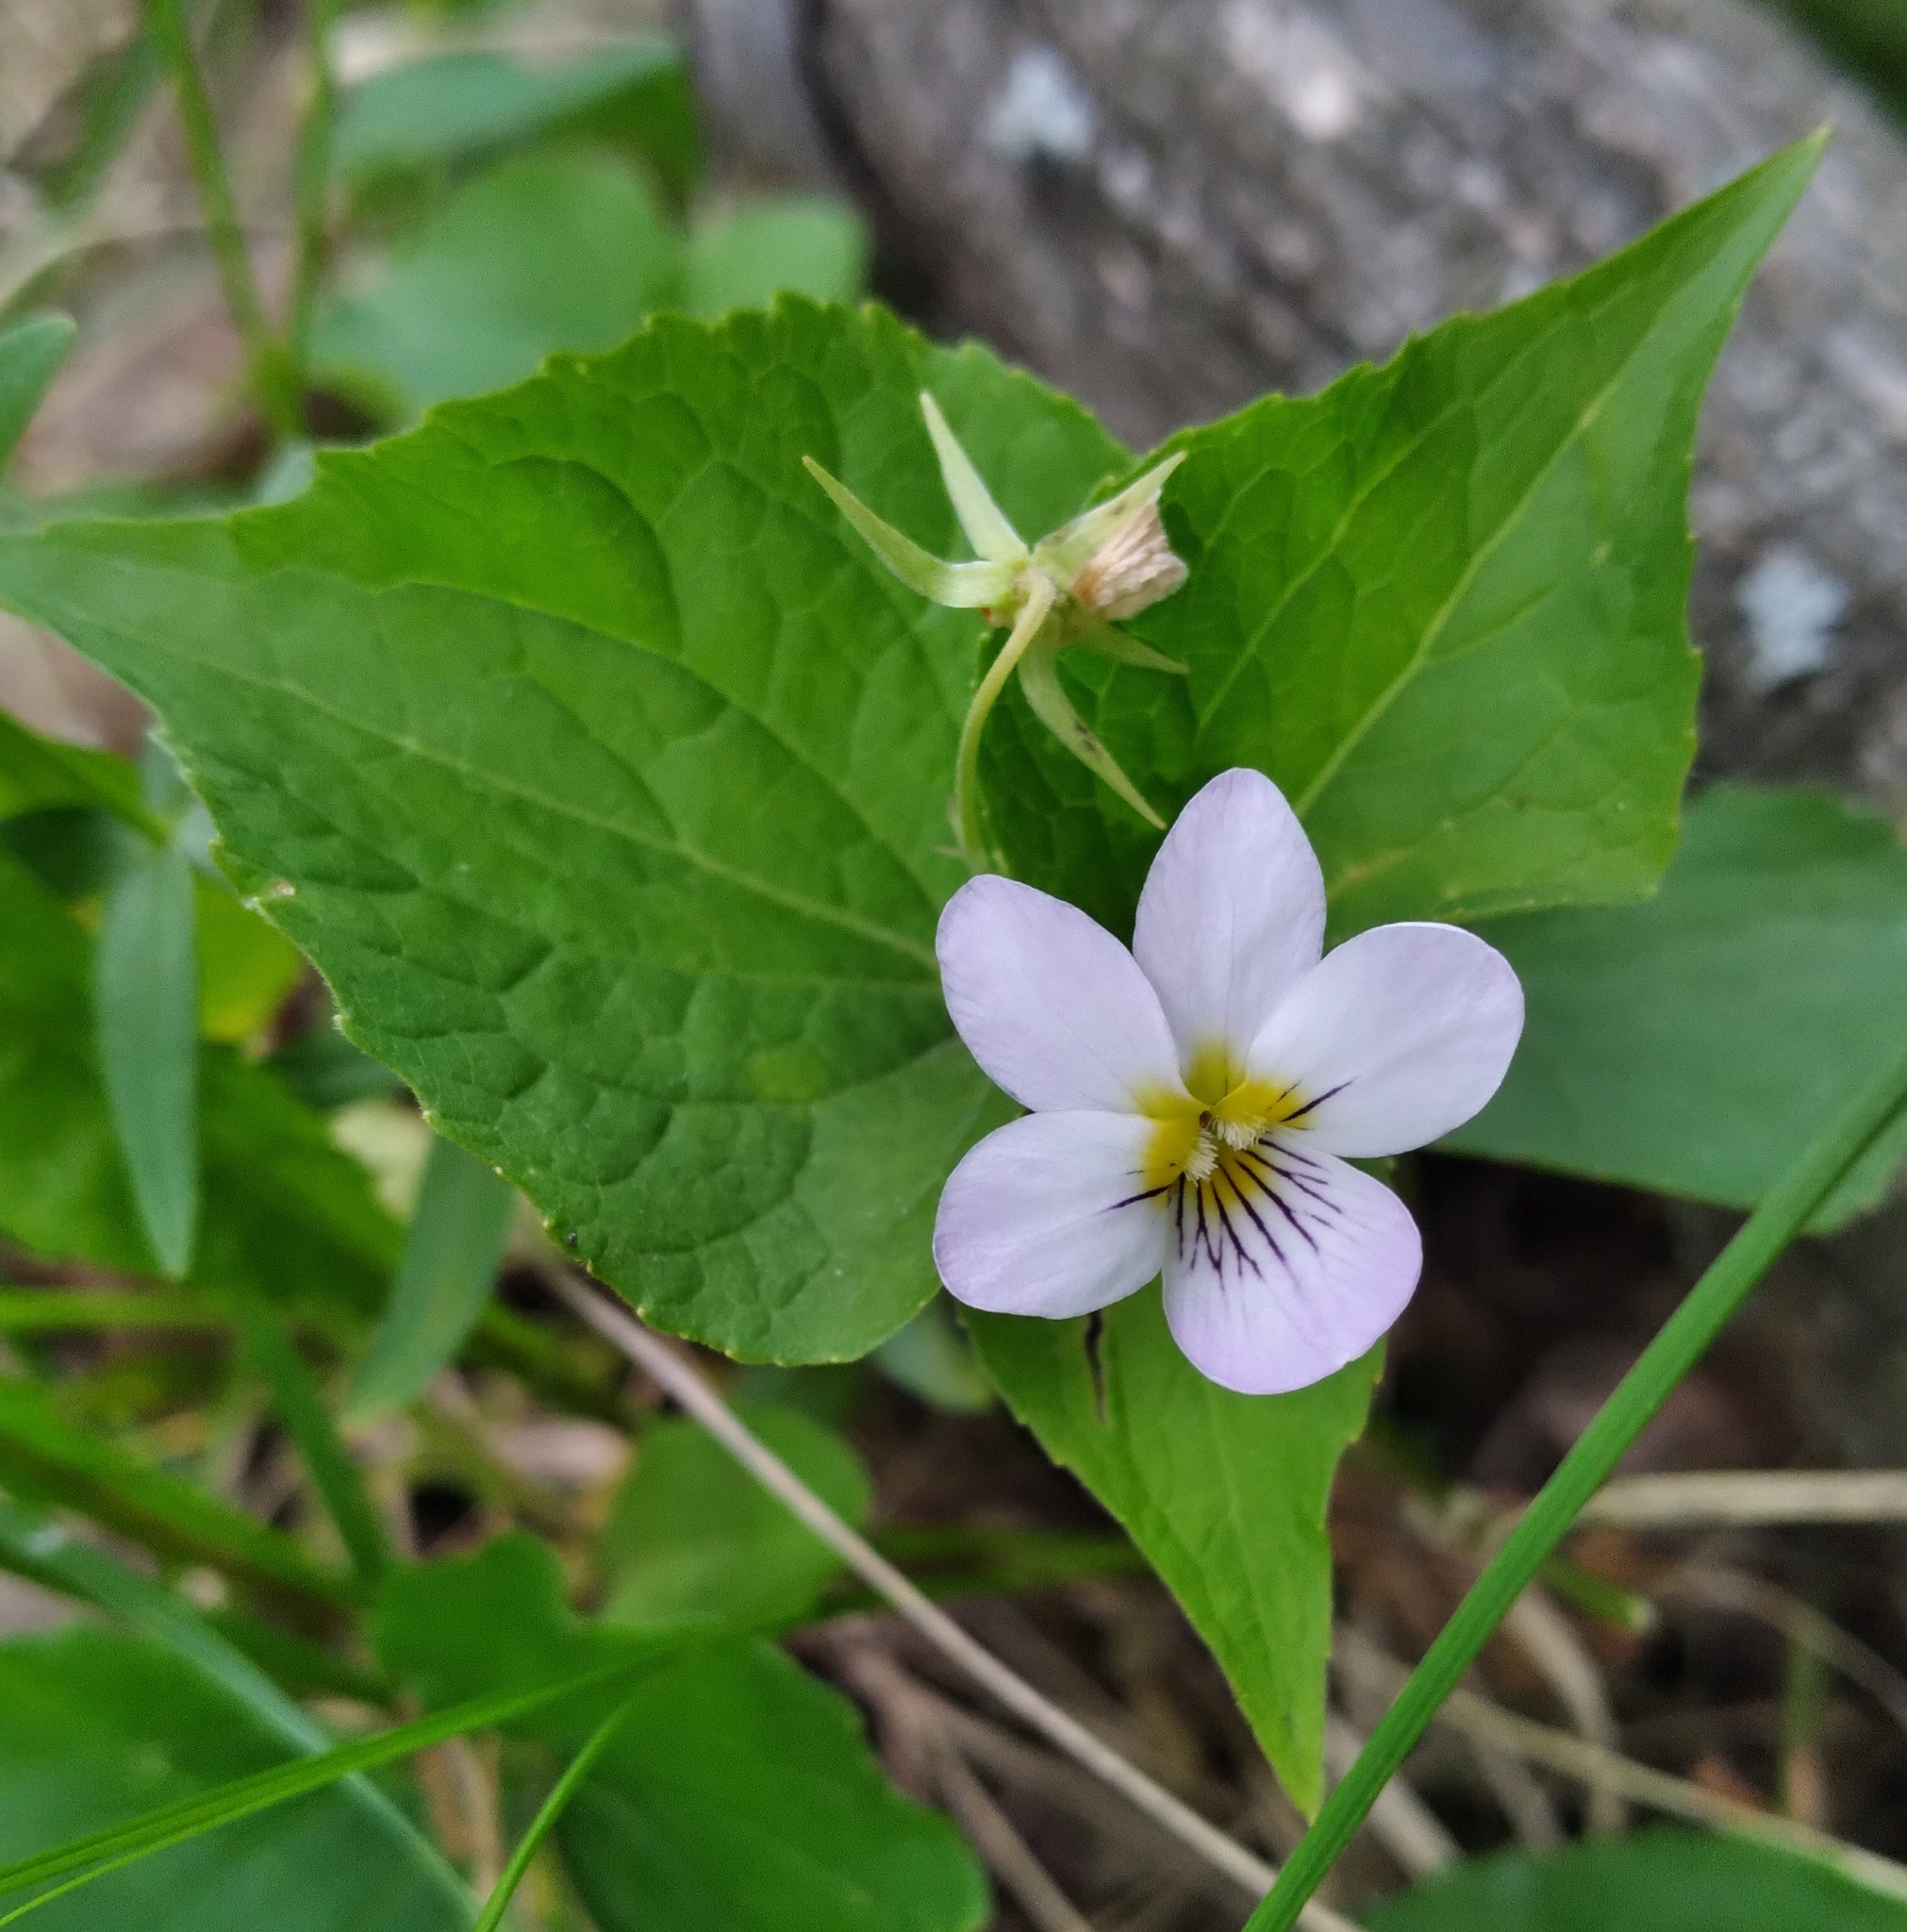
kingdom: Plantae
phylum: Tracheophyta
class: Magnoliopsida
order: Malpighiales
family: Violaceae
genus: Viola
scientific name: Viola canadensis
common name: Canada violet
